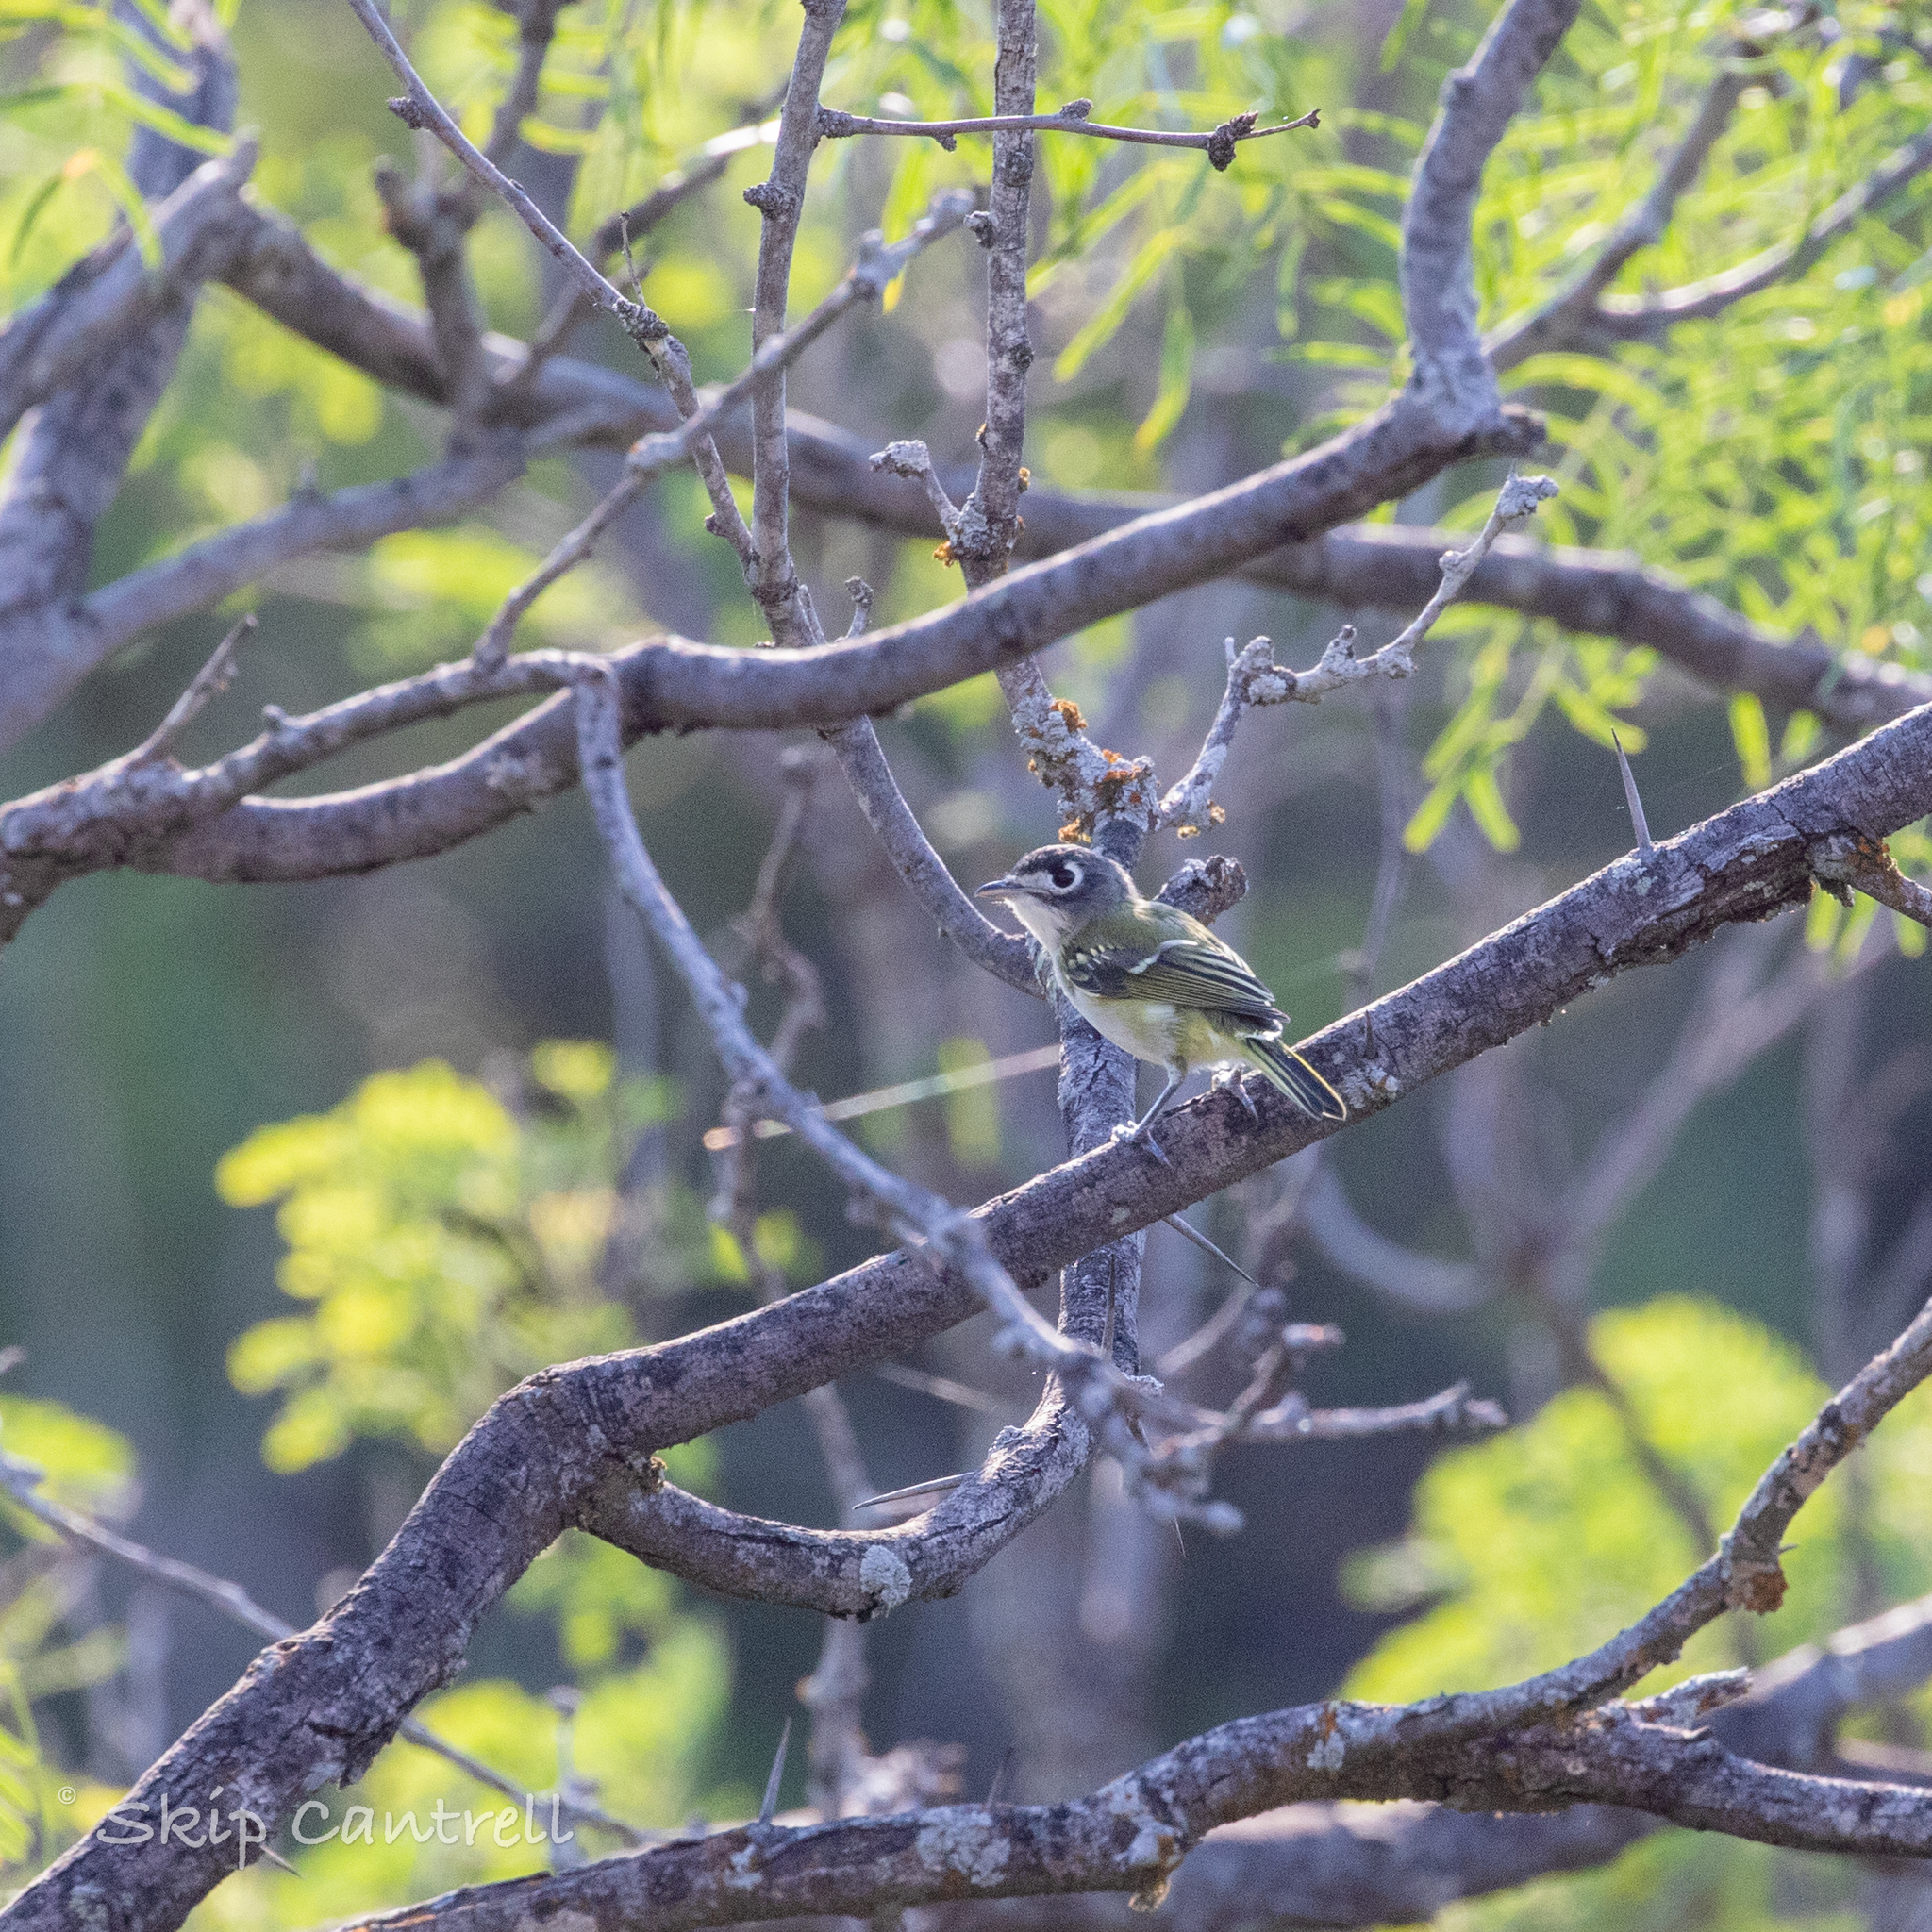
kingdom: Animalia
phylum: Chordata
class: Aves
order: Passeriformes
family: Vireonidae
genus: Vireo
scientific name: Vireo atricapilla
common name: Black-capped vireo
